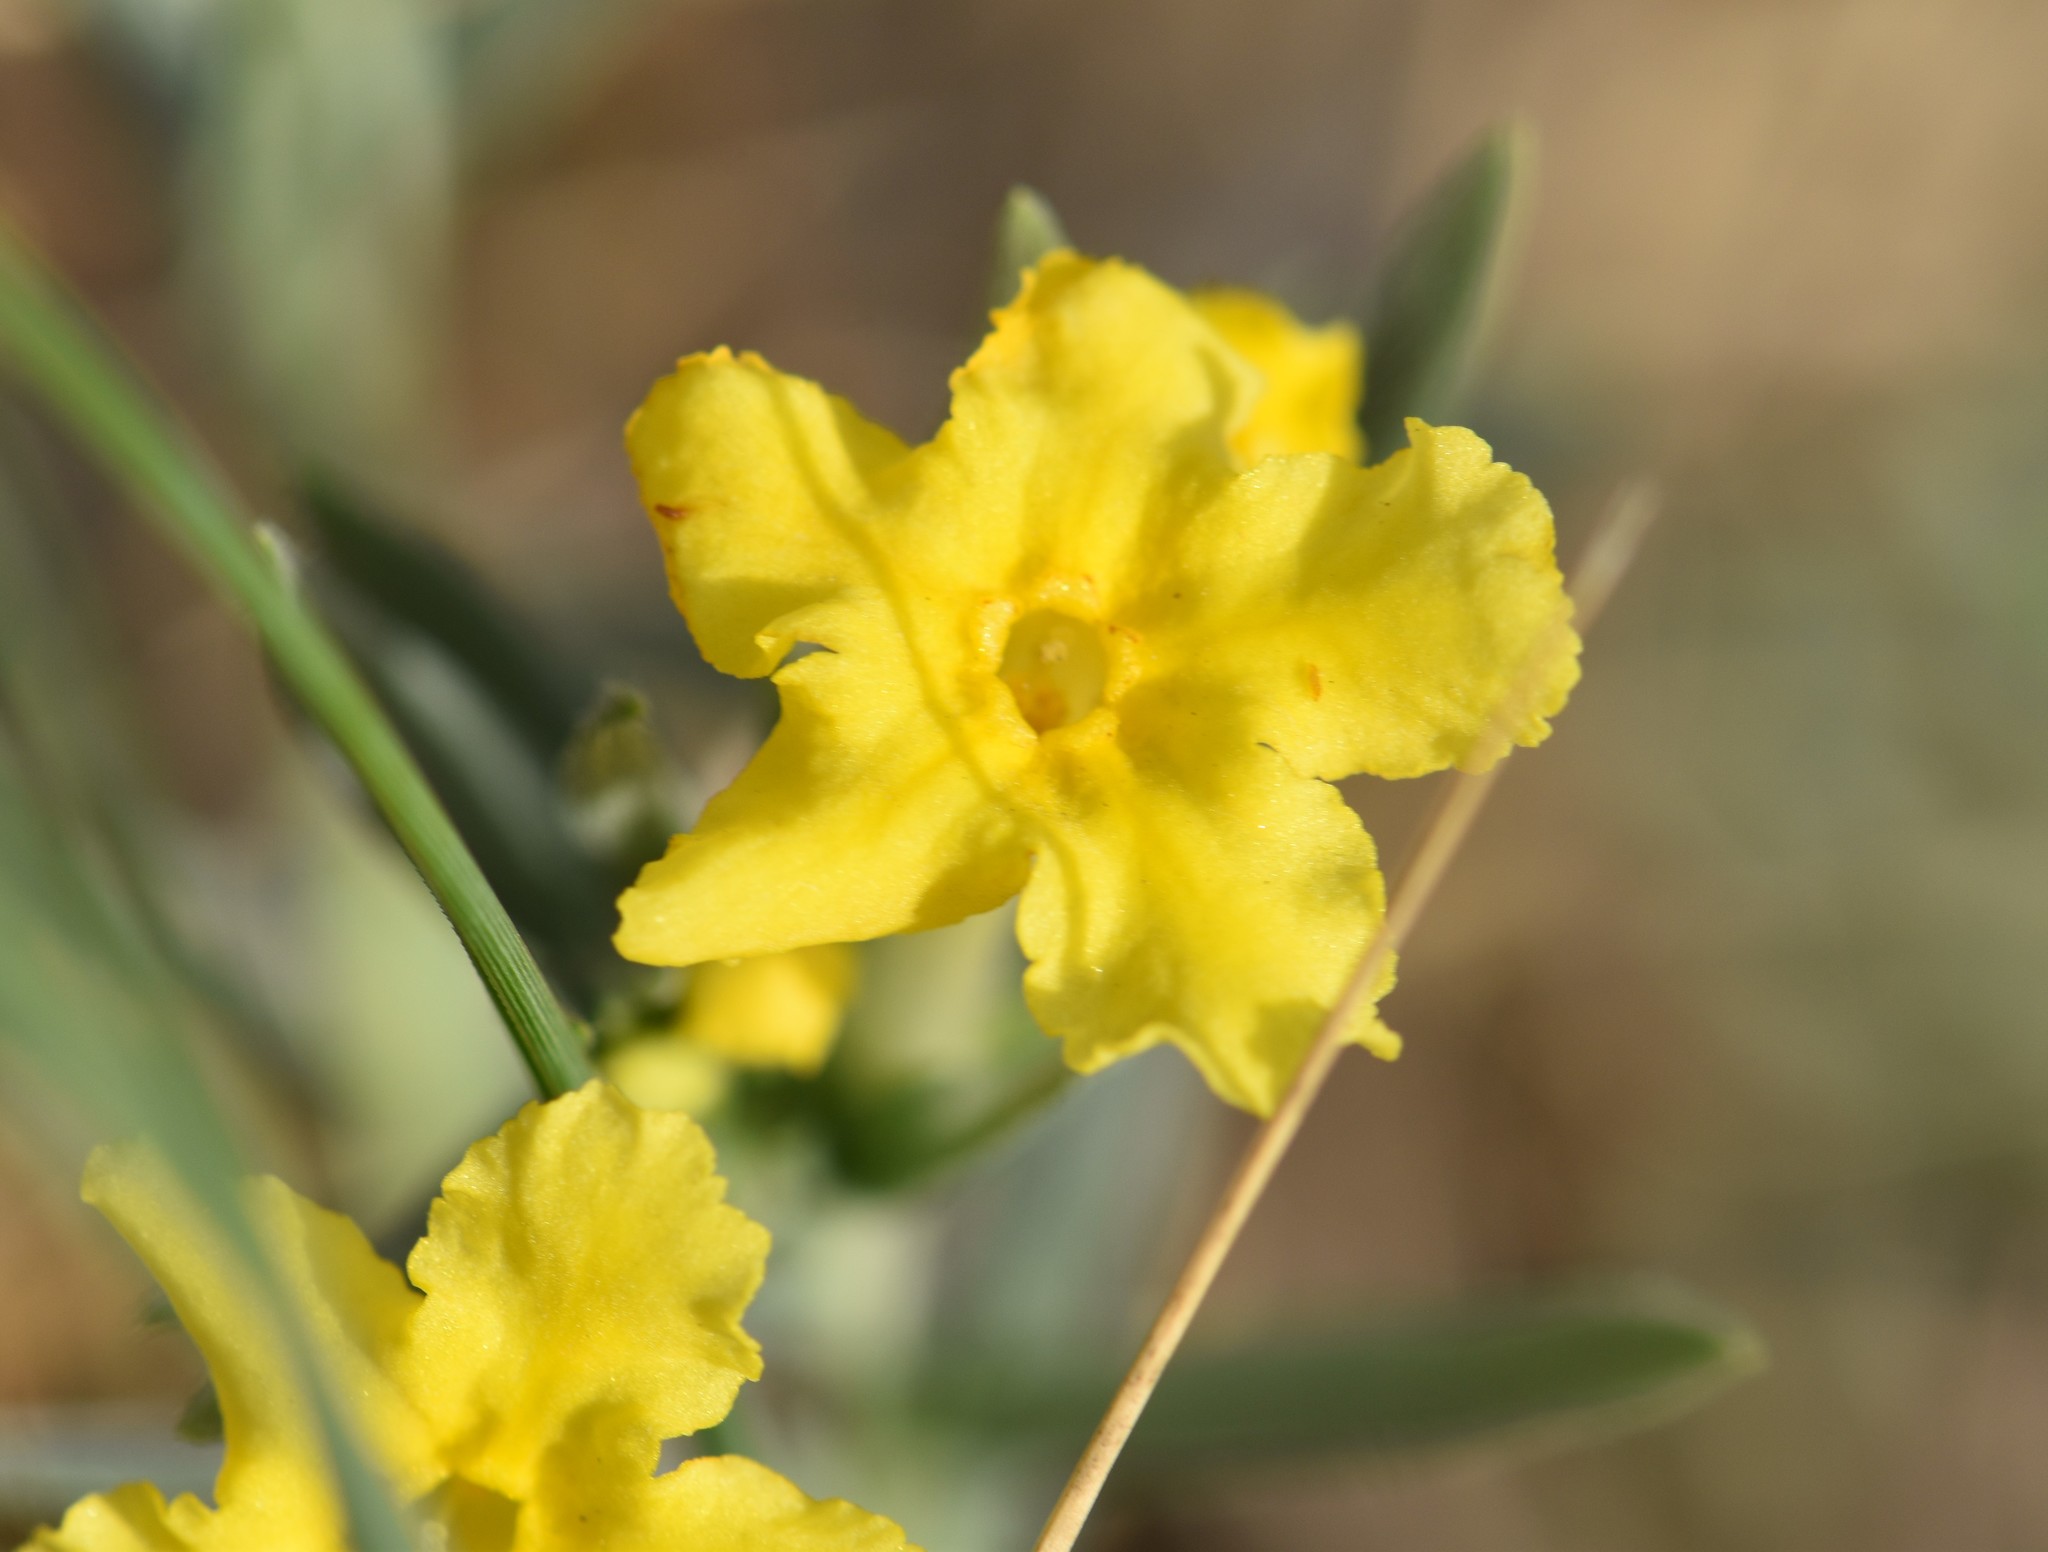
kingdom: Plantae
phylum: Tracheophyta
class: Magnoliopsida
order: Boraginales
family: Boraginaceae
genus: Lithospermum
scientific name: Lithospermum incisum
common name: Fringed gromwell
